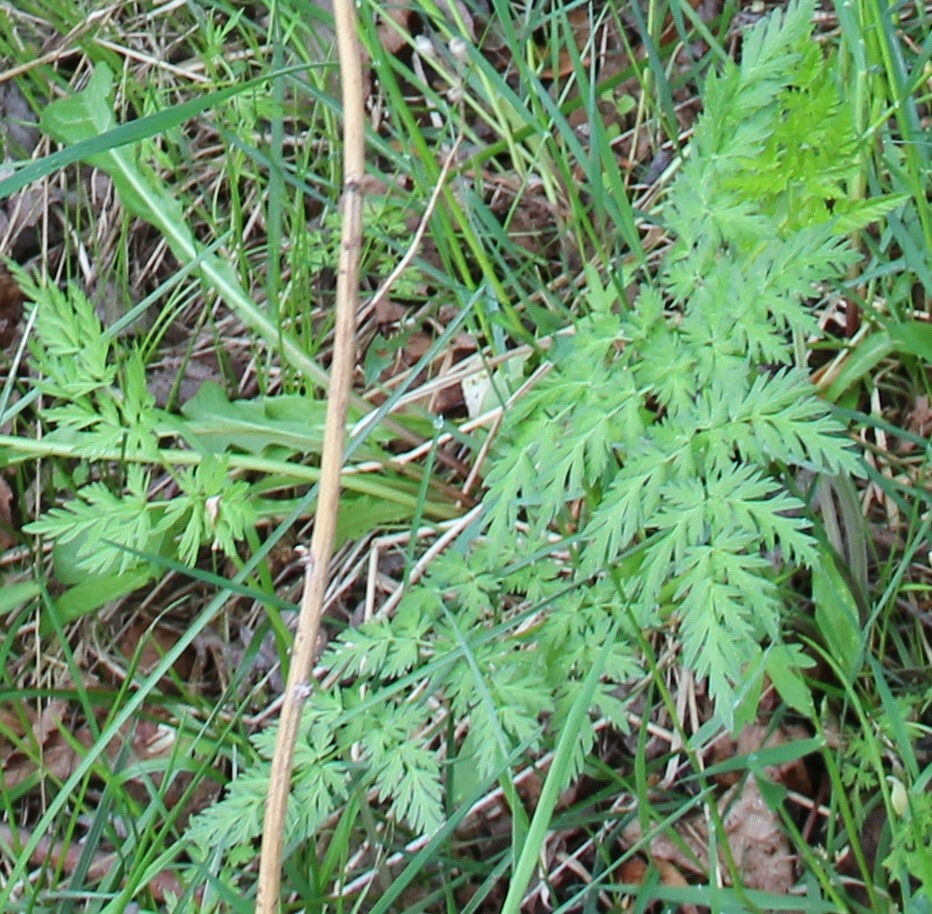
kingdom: Plantae
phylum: Tracheophyta
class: Magnoliopsida
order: Apiales
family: Apiaceae
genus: Anthriscus
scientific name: Anthriscus sylvestris
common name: Cow parsley
